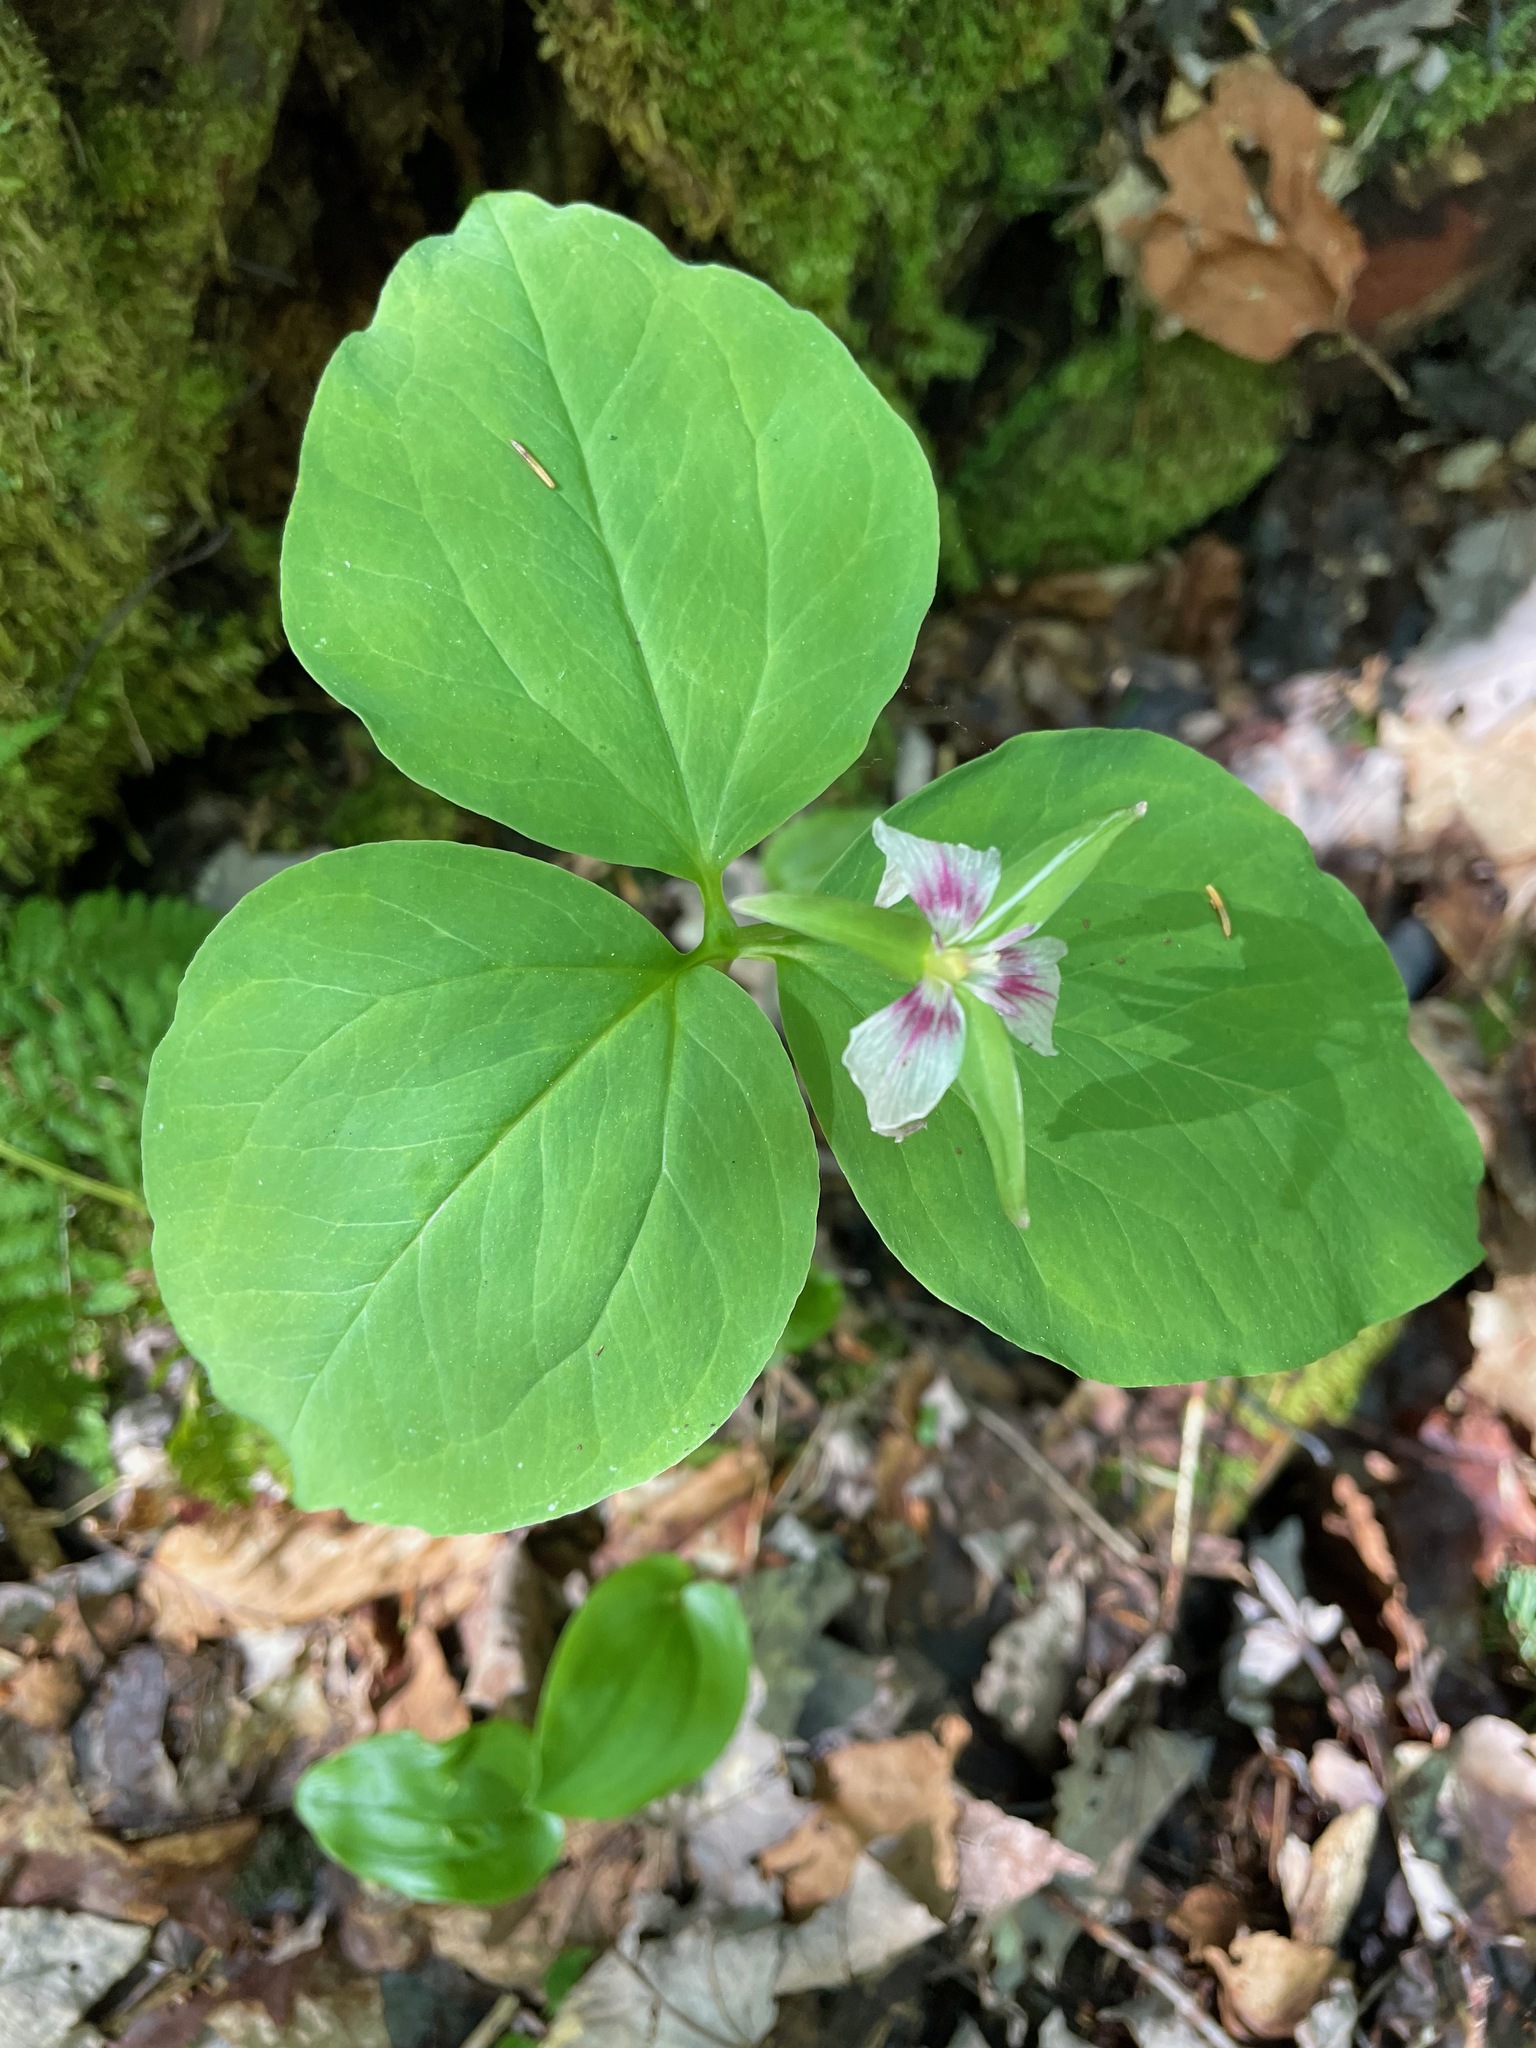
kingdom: Plantae
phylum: Tracheophyta
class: Liliopsida
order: Liliales
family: Melanthiaceae
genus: Trillium
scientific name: Trillium undulatum
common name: Paint trillium
